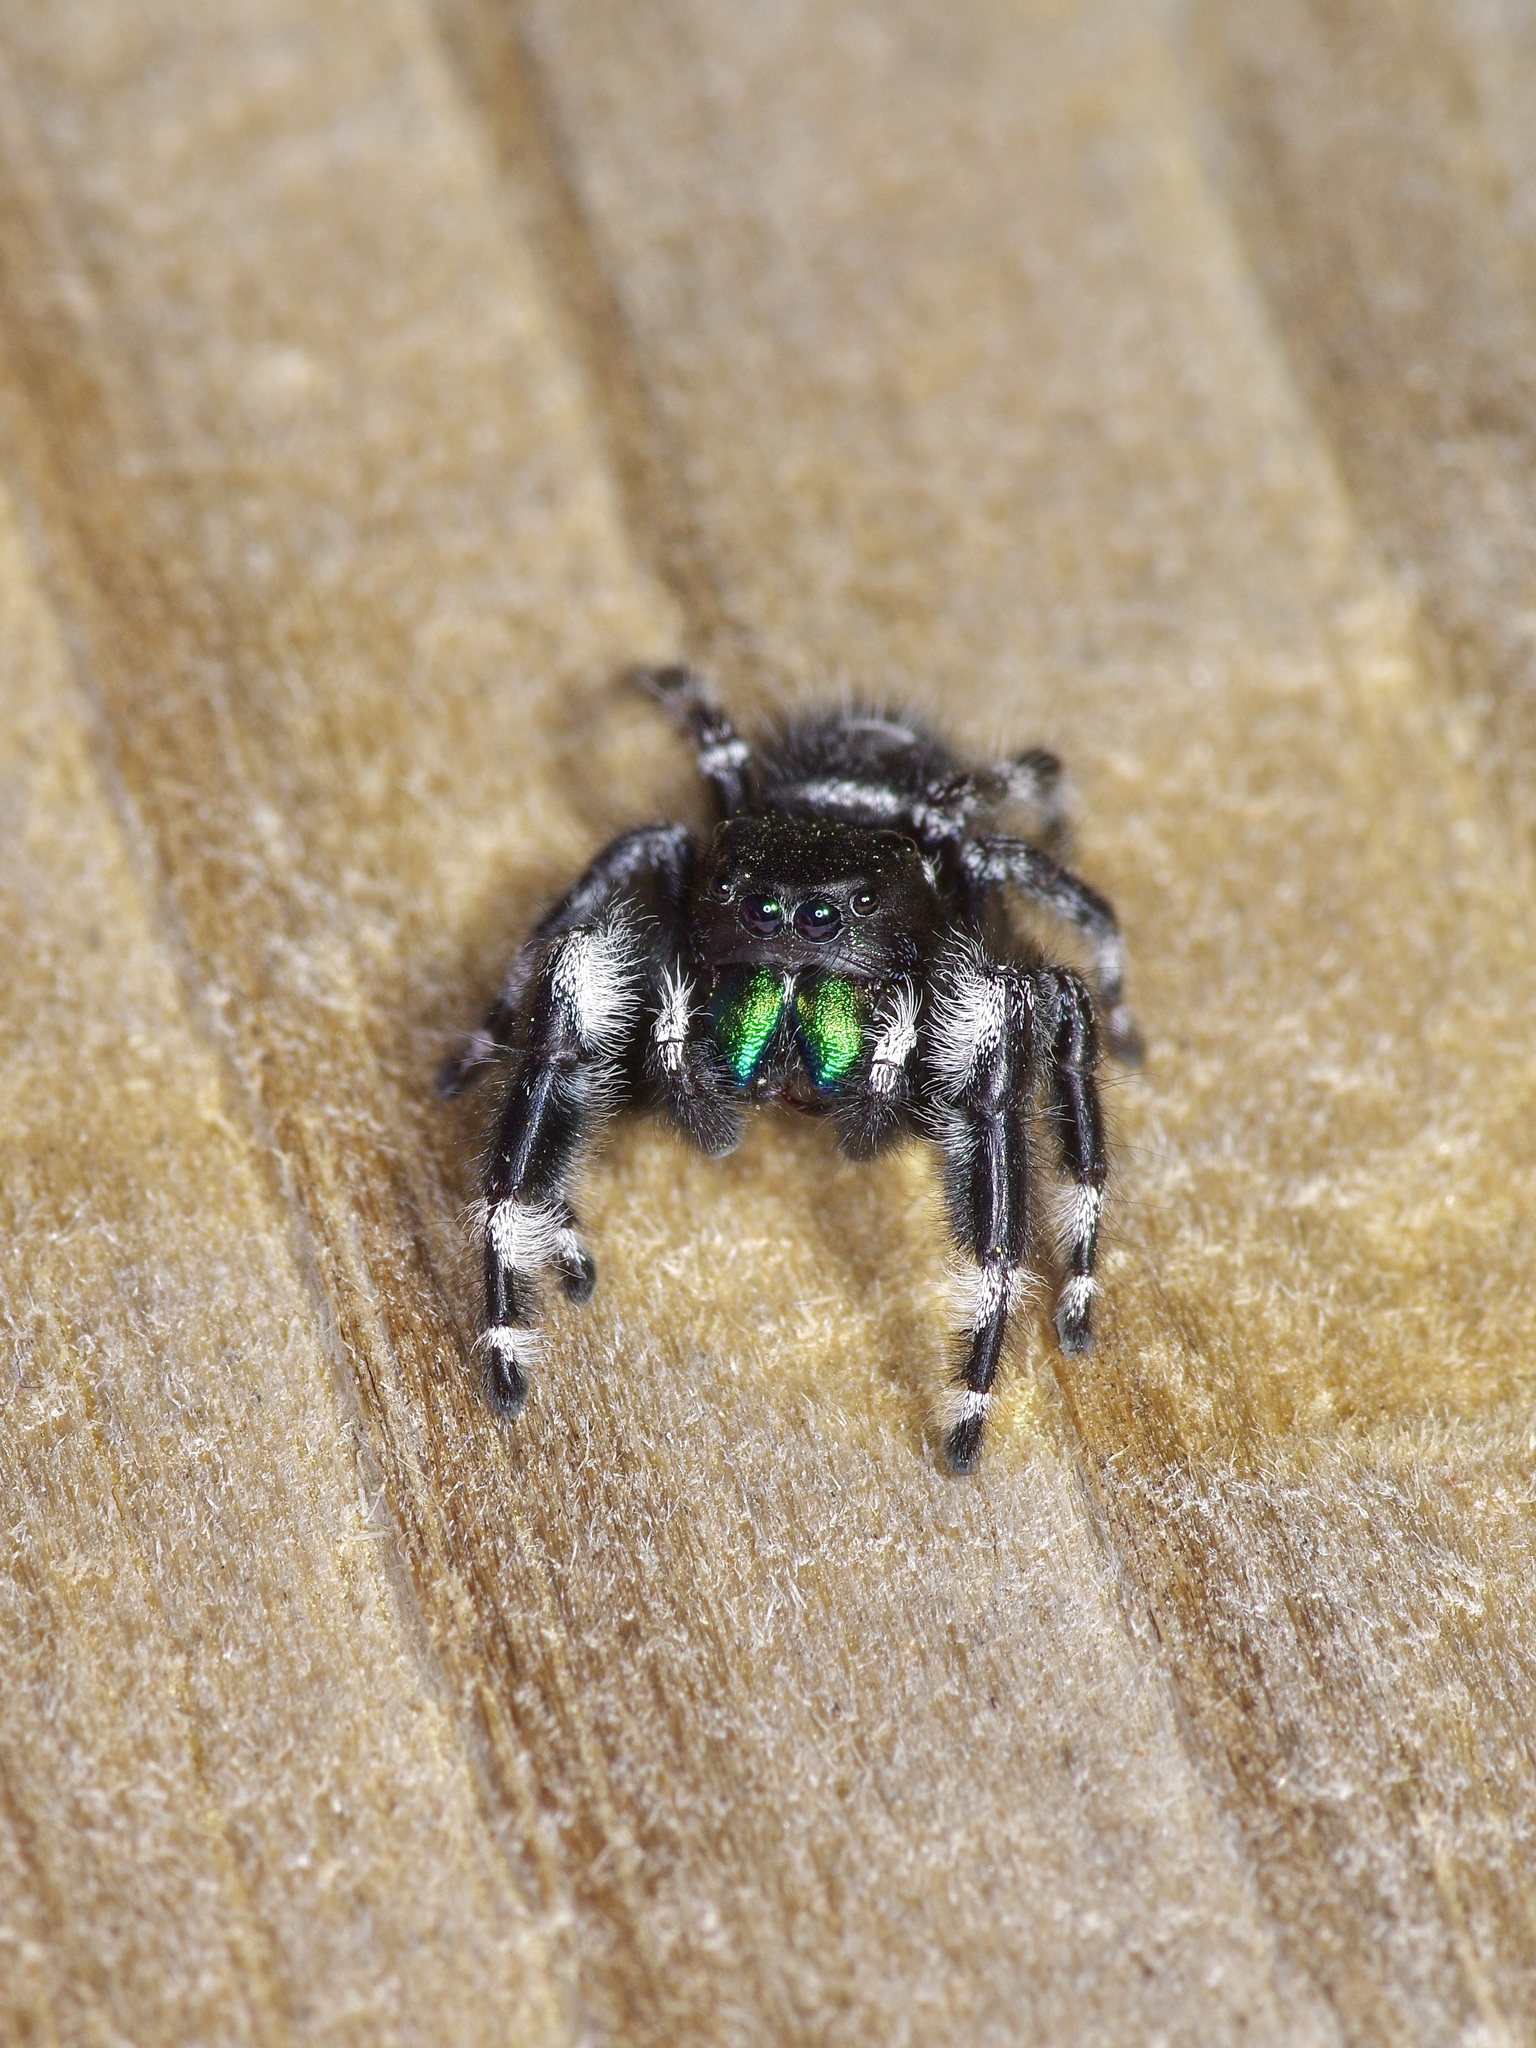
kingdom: Animalia
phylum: Arthropoda
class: Arachnida
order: Araneae
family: Salticidae
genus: Phidippus
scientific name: Phidippus audax
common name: Bold jumper
